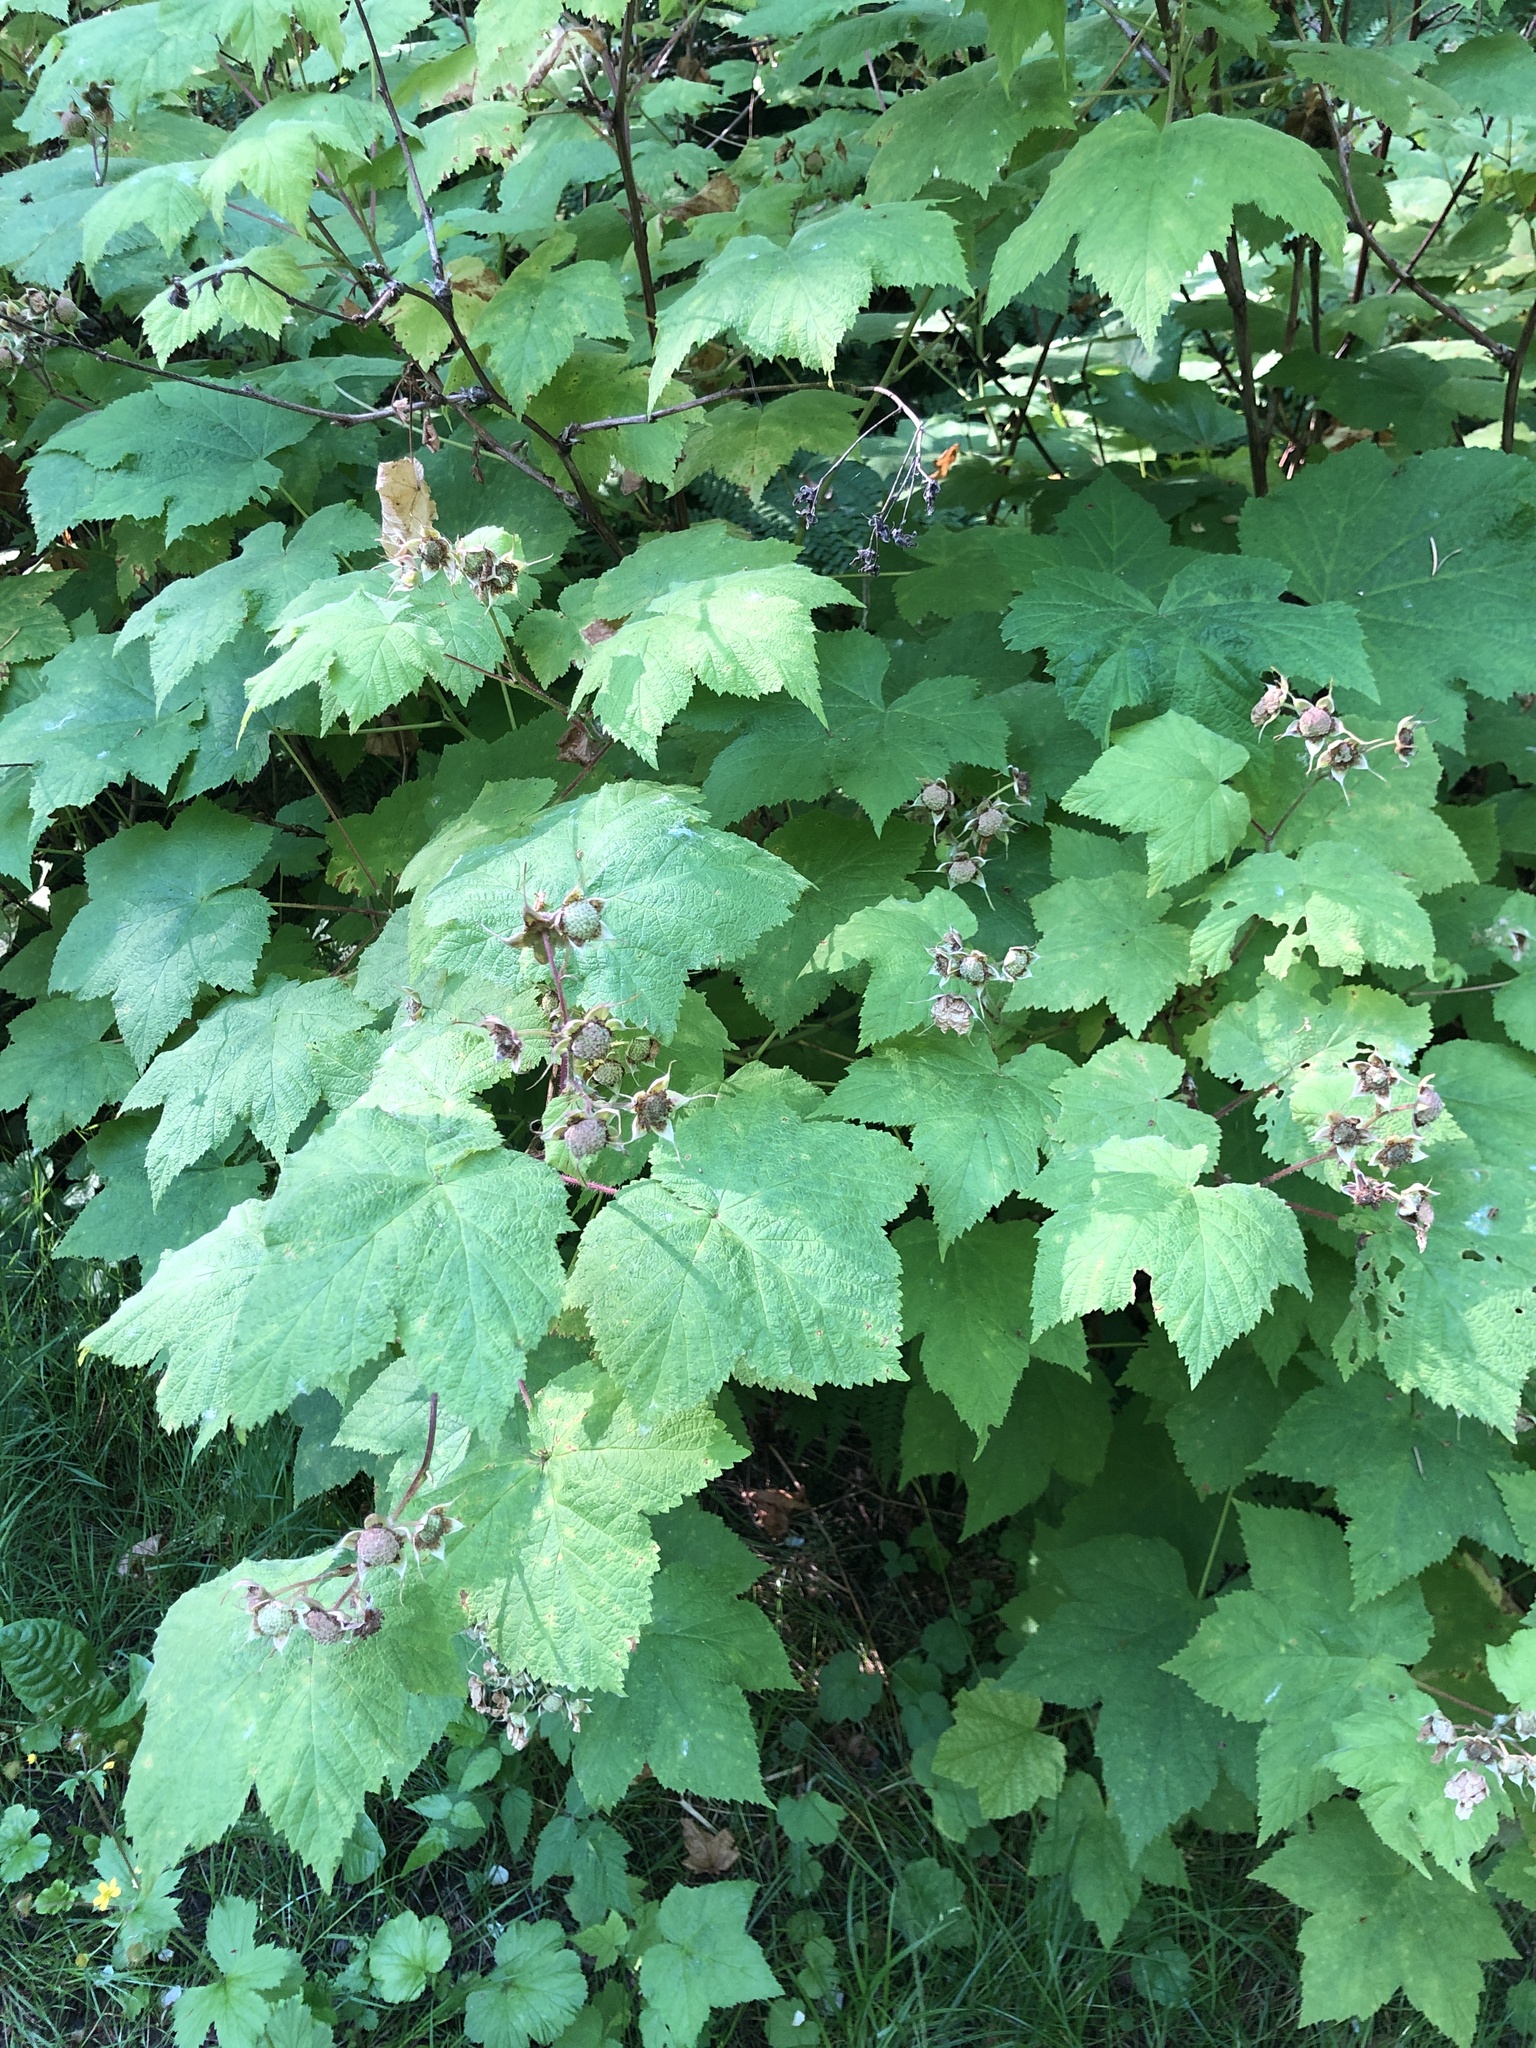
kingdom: Plantae
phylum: Tracheophyta
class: Magnoliopsida
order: Rosales
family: Rosaceae
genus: Rubus
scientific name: Rubus parviflorus
